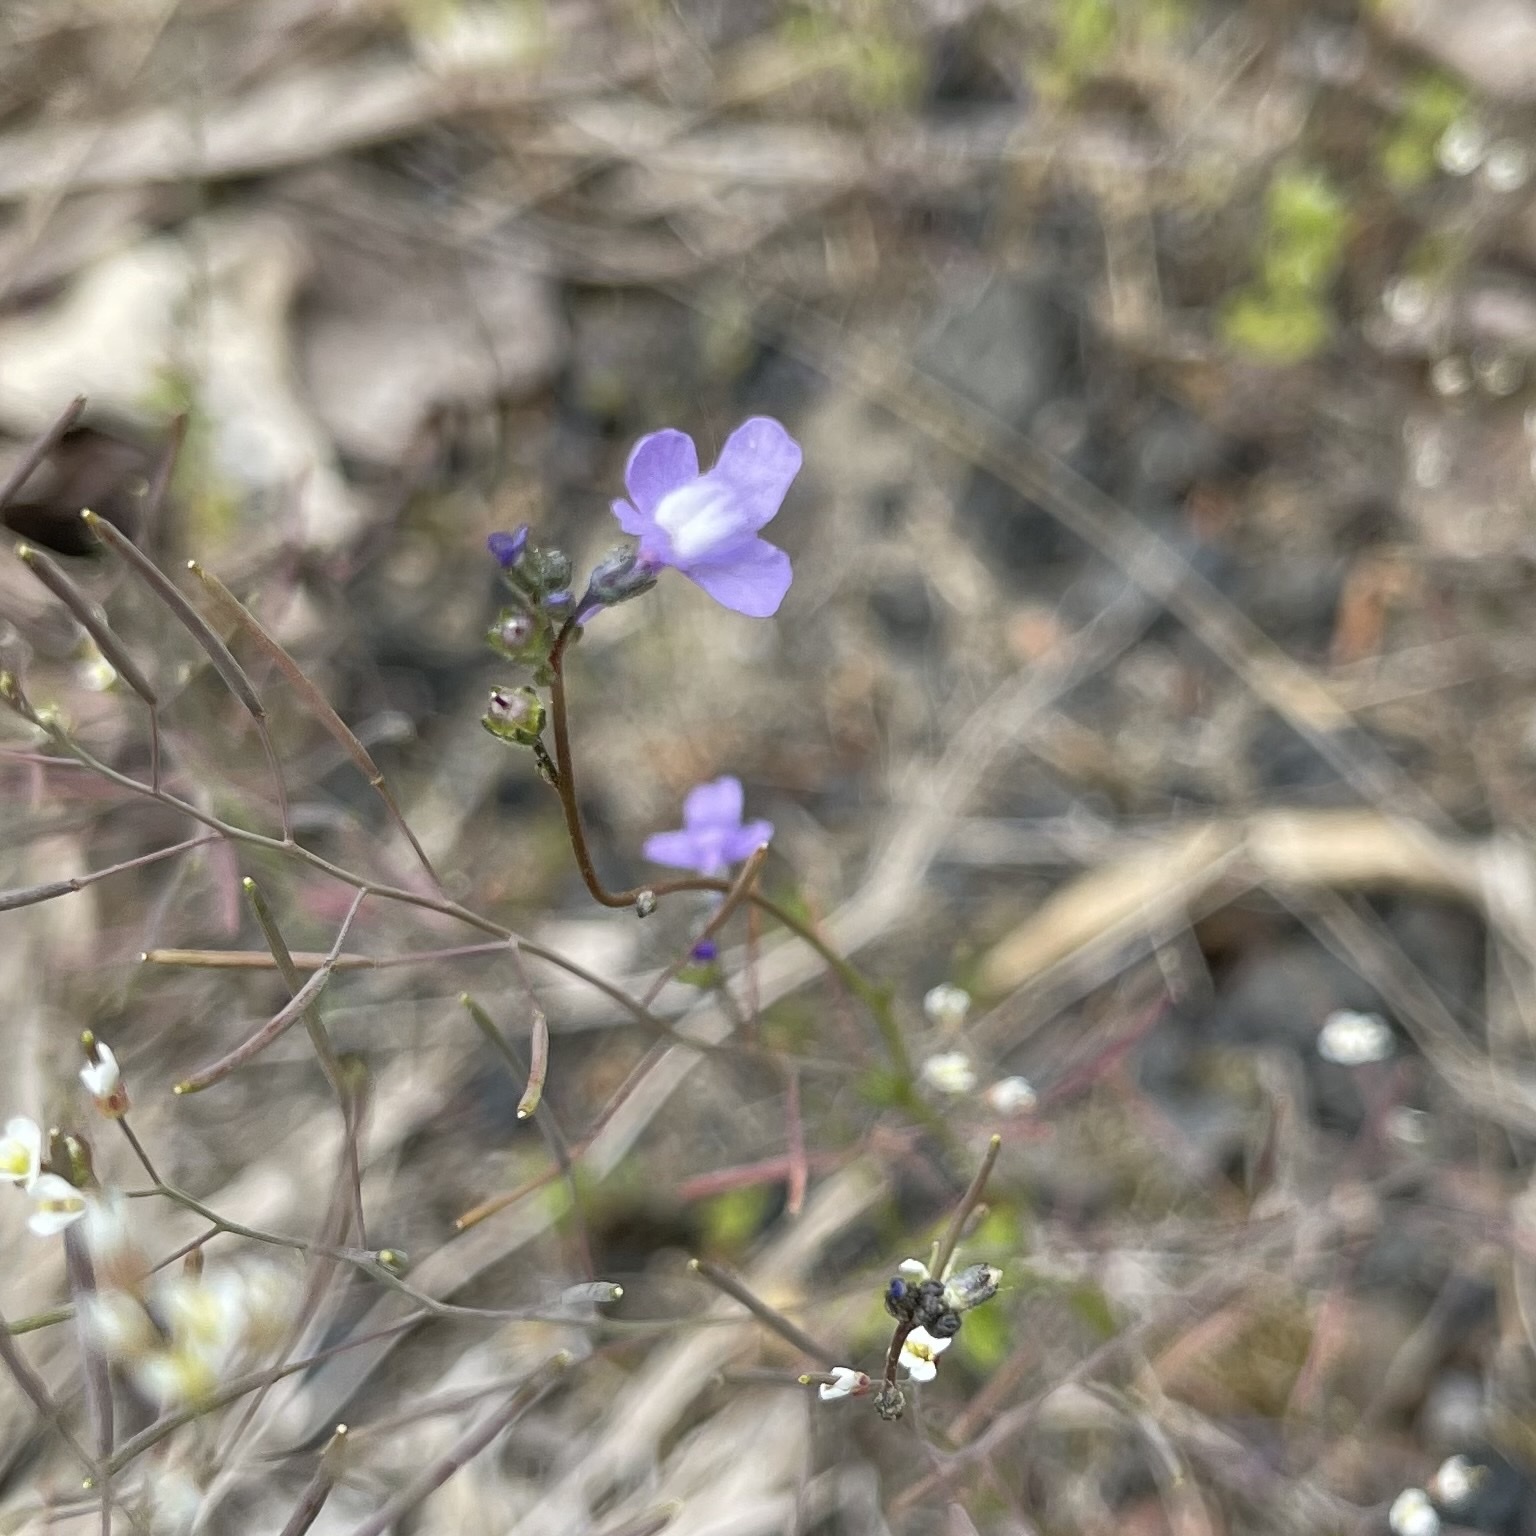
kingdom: Plantae
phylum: Tracheophyta
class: Magnoliopsida
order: Lamiales
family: Plantaginaceae
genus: Nuttallanthus
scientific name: Nuttallanthus canadensis
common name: Blue toadflax
